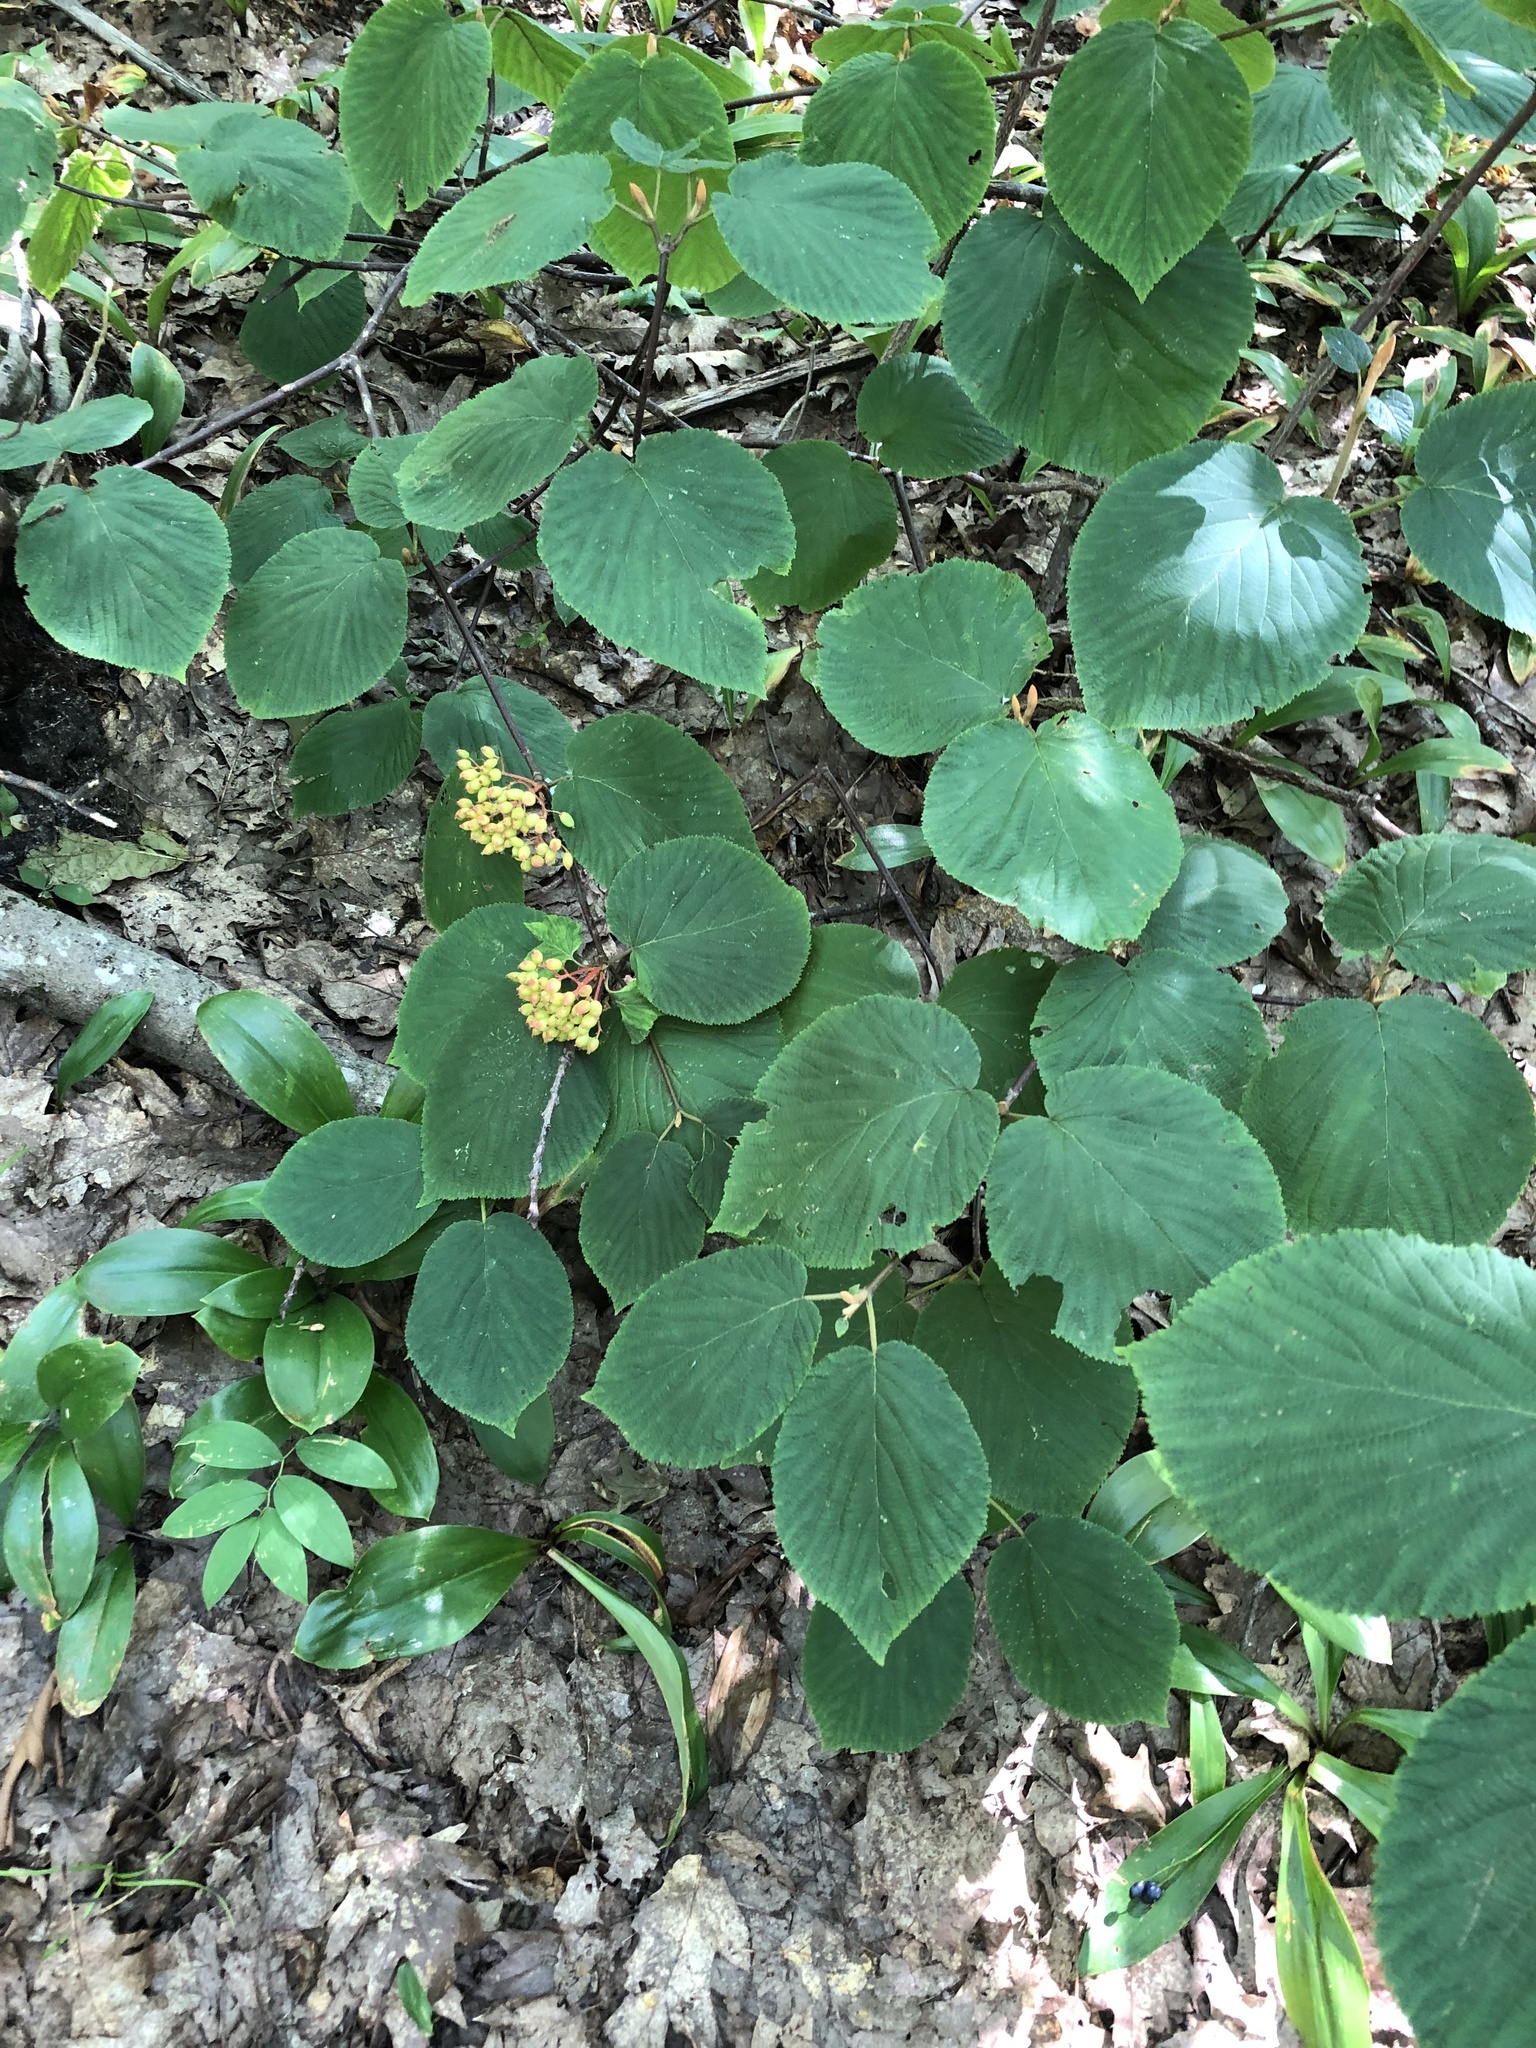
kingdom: Plantae
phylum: Tracheophyta
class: Magnoliopsida
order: Dipsacales
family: Viburnaceae
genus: Viburnum
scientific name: Viburnum lantanoides
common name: Hobblebush
